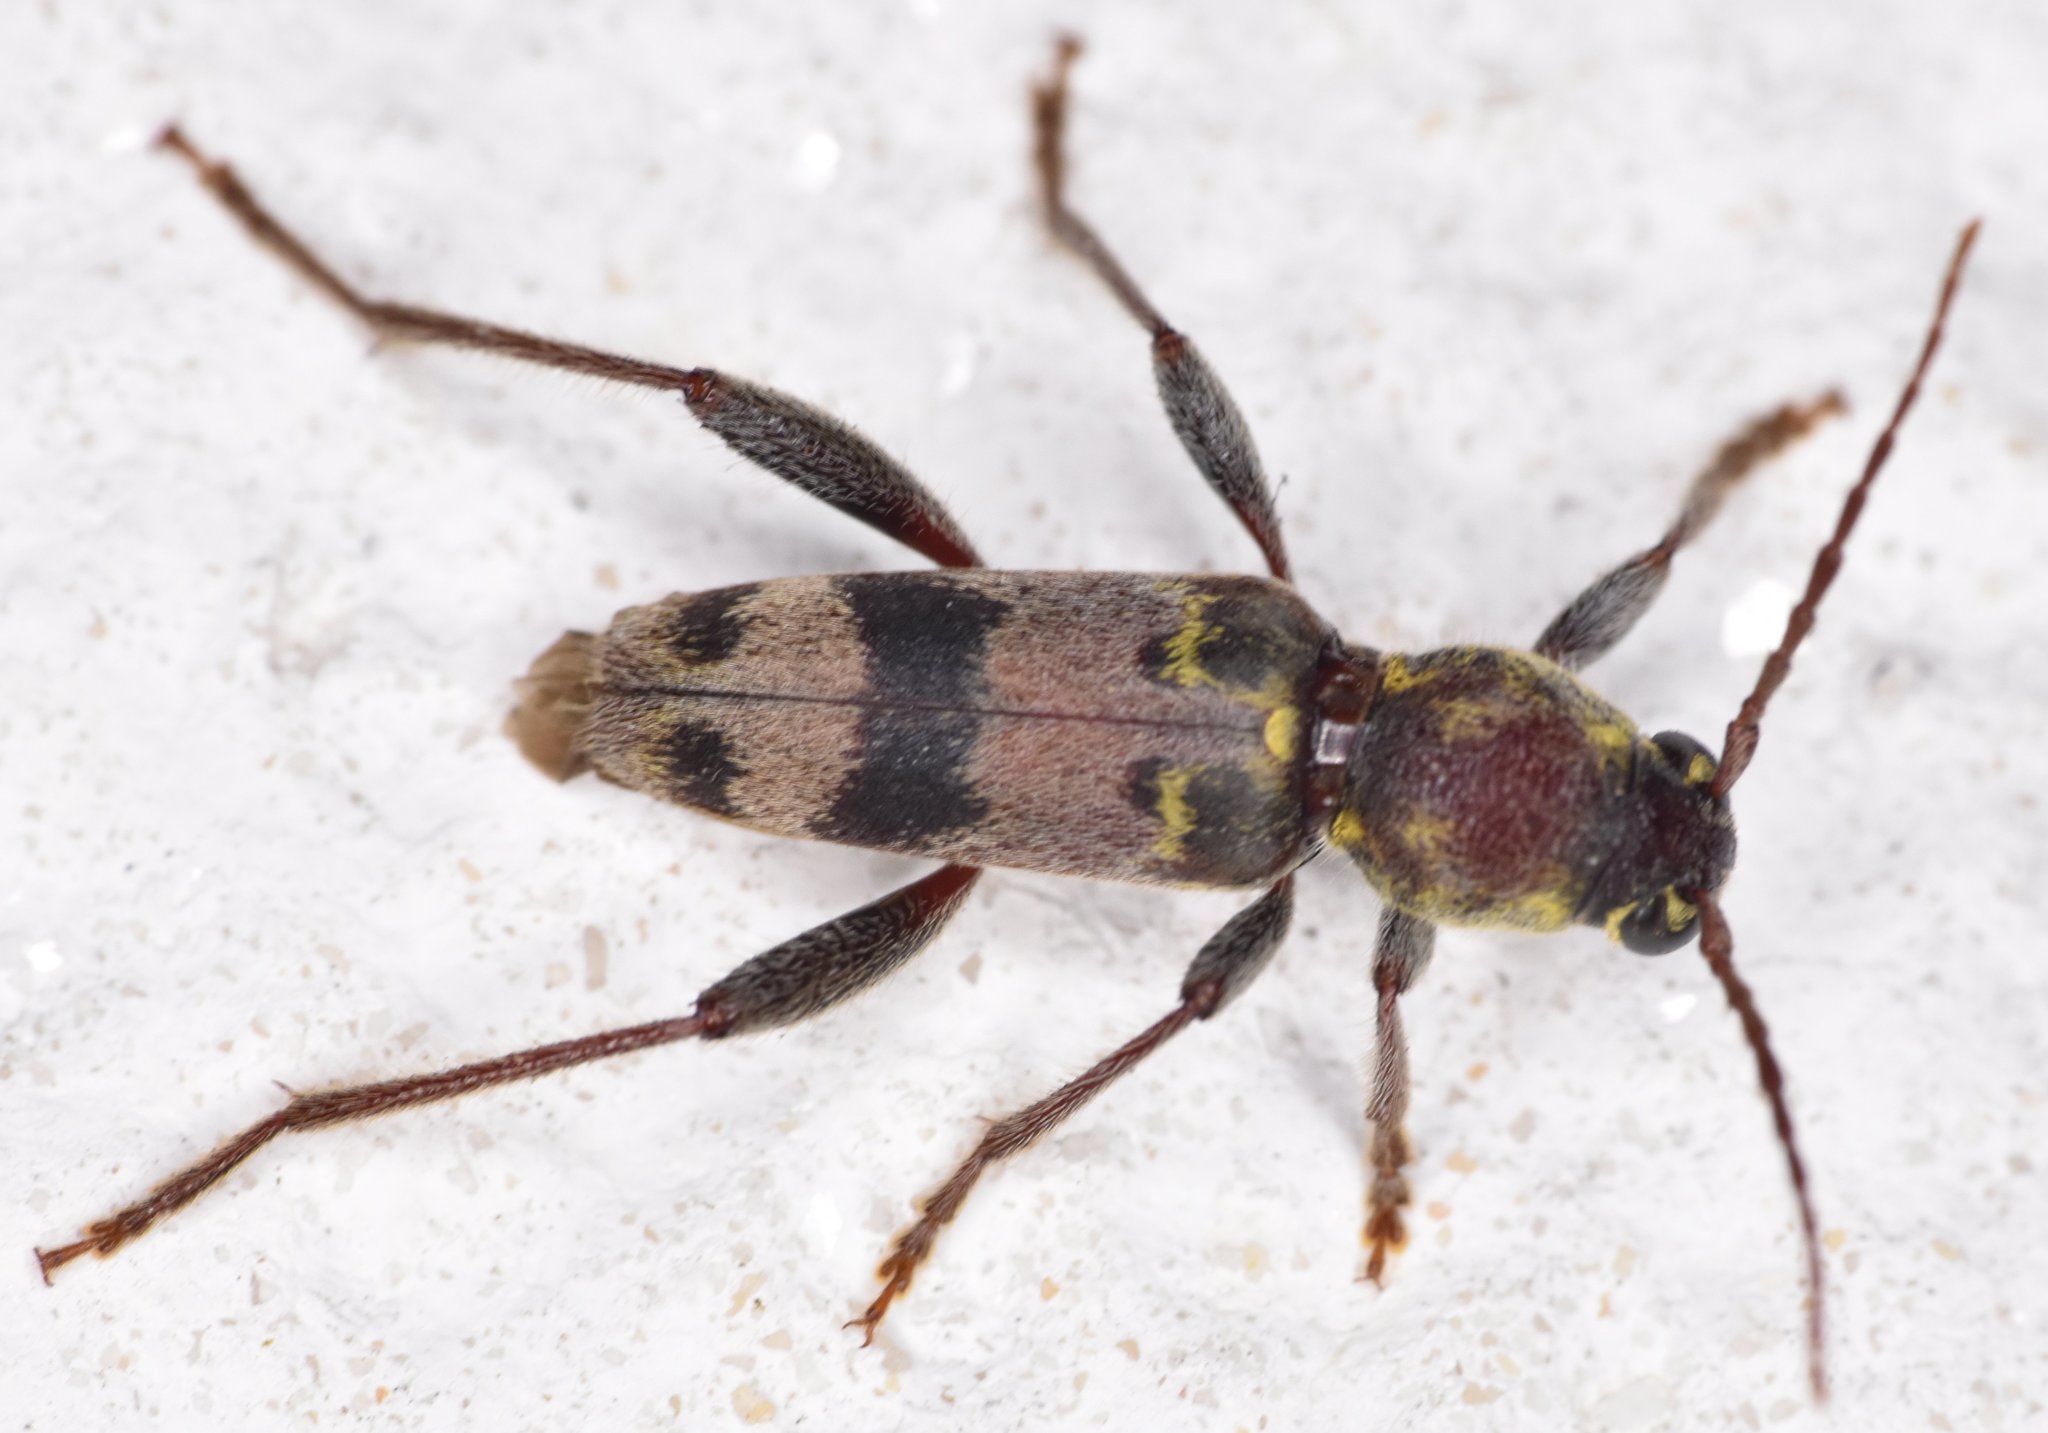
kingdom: Animalia
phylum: Arthropoda
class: Insecta
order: Coleoptera
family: Cerambycidae
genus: Xylotrechus
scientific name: Xylotrechus colonus
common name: Long-horned beetle
